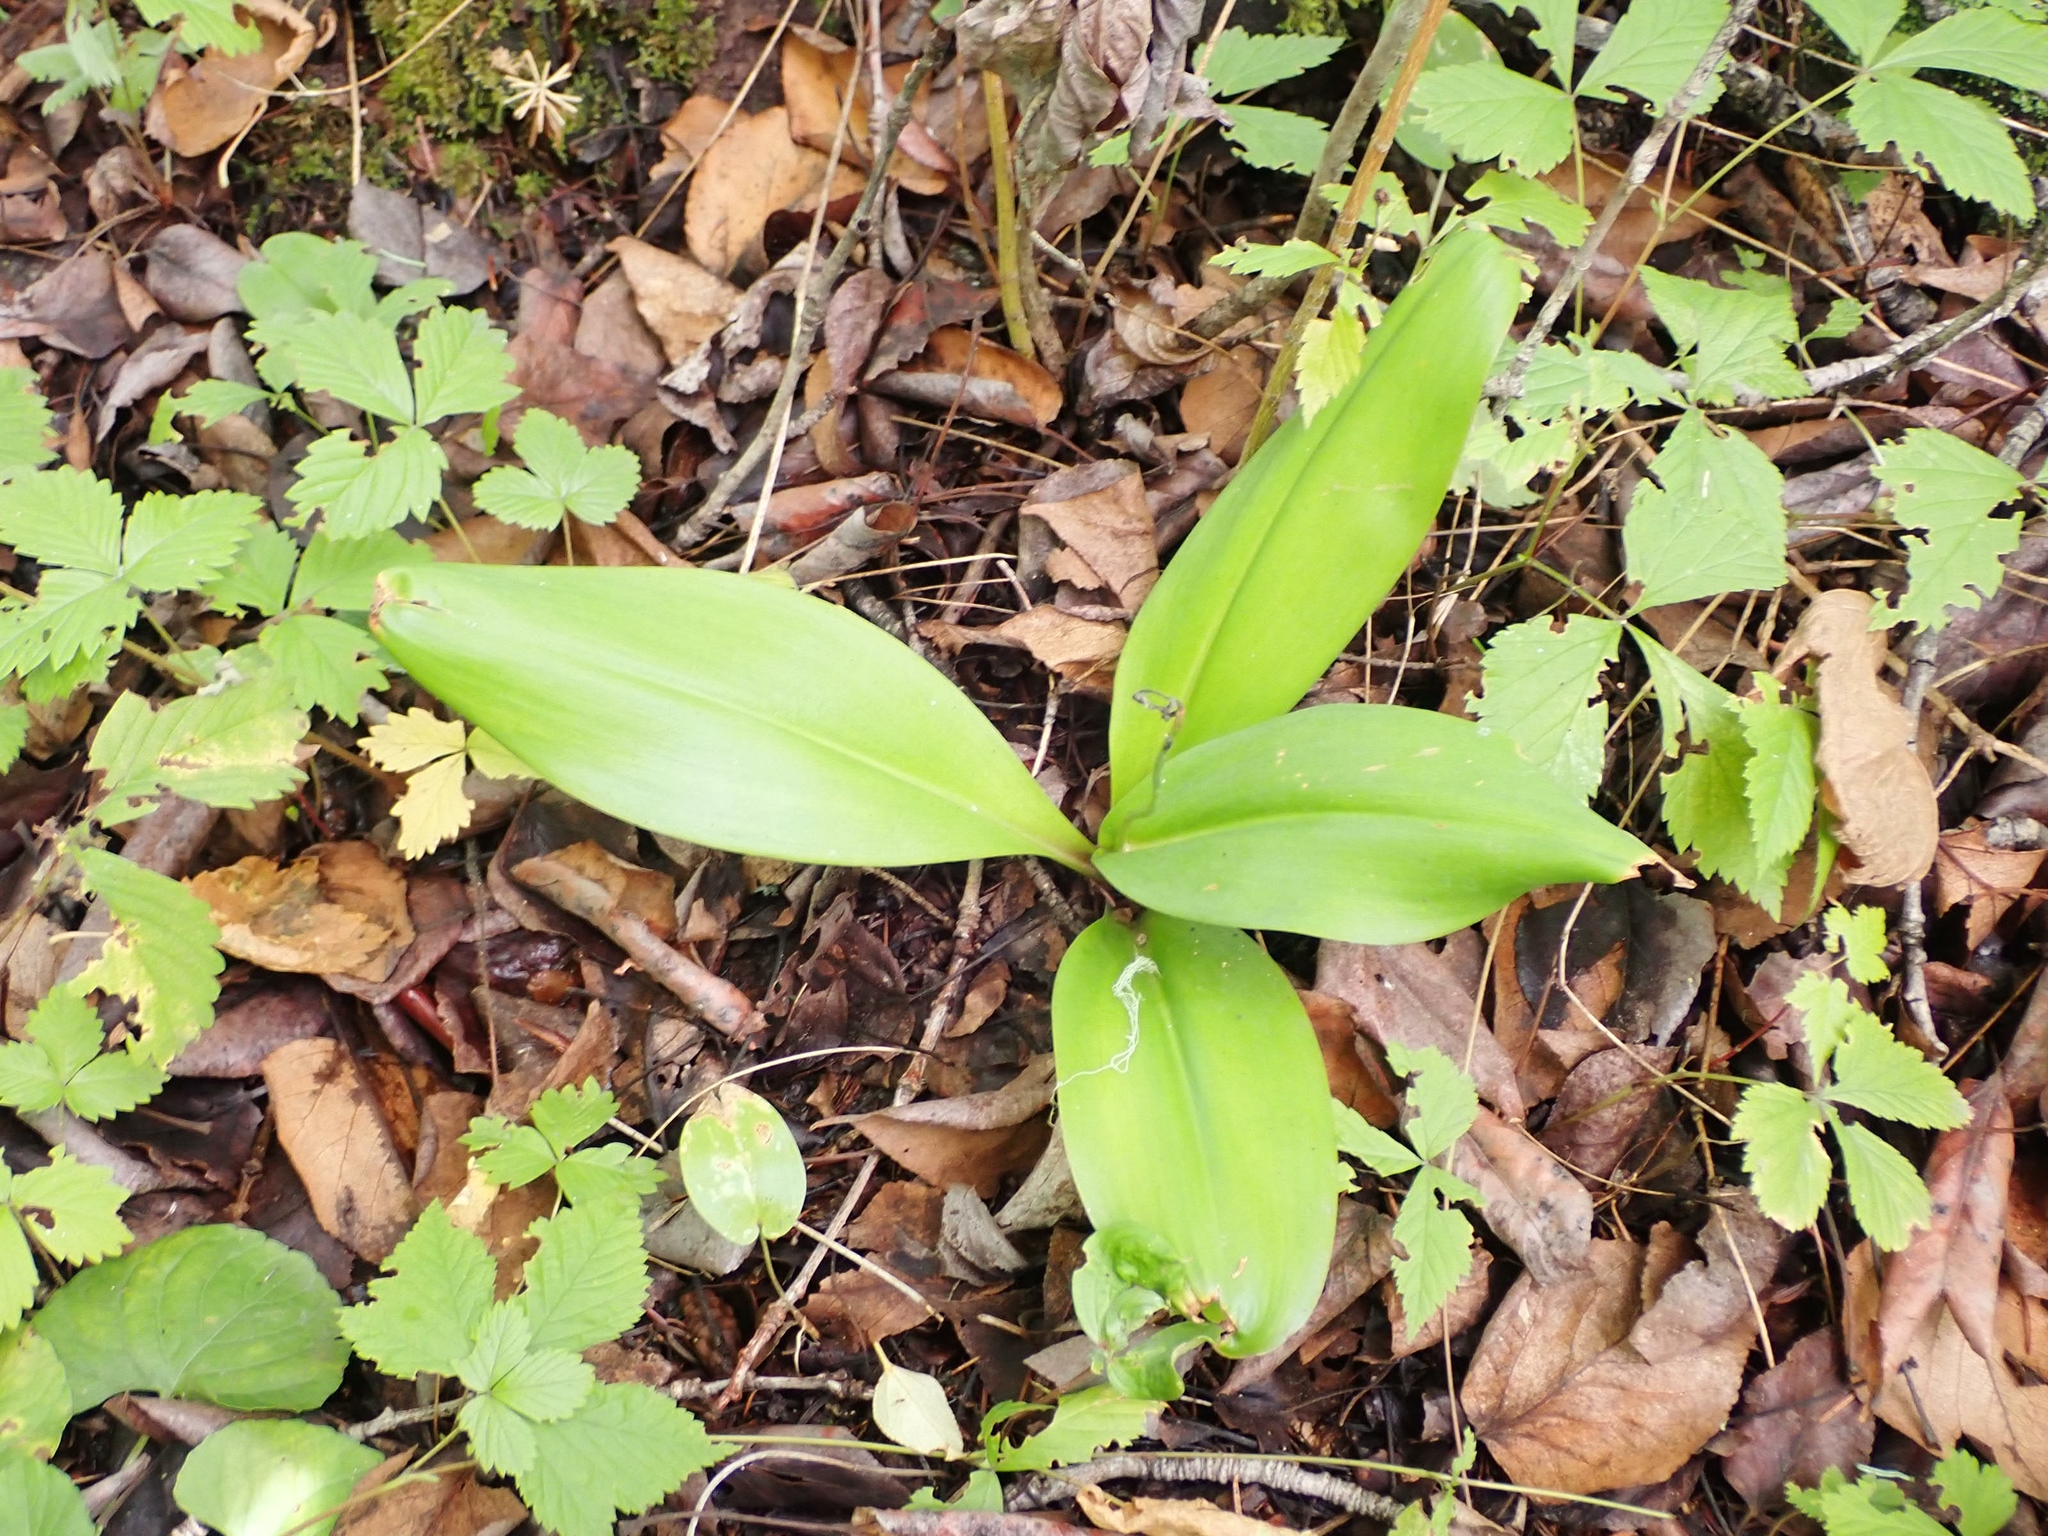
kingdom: Plantae
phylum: Tracheophyta
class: Liliopsida
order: Liliales
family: Liliaceae
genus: Clintonia
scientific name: Clintonia borealis
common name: Yellow clintonia
